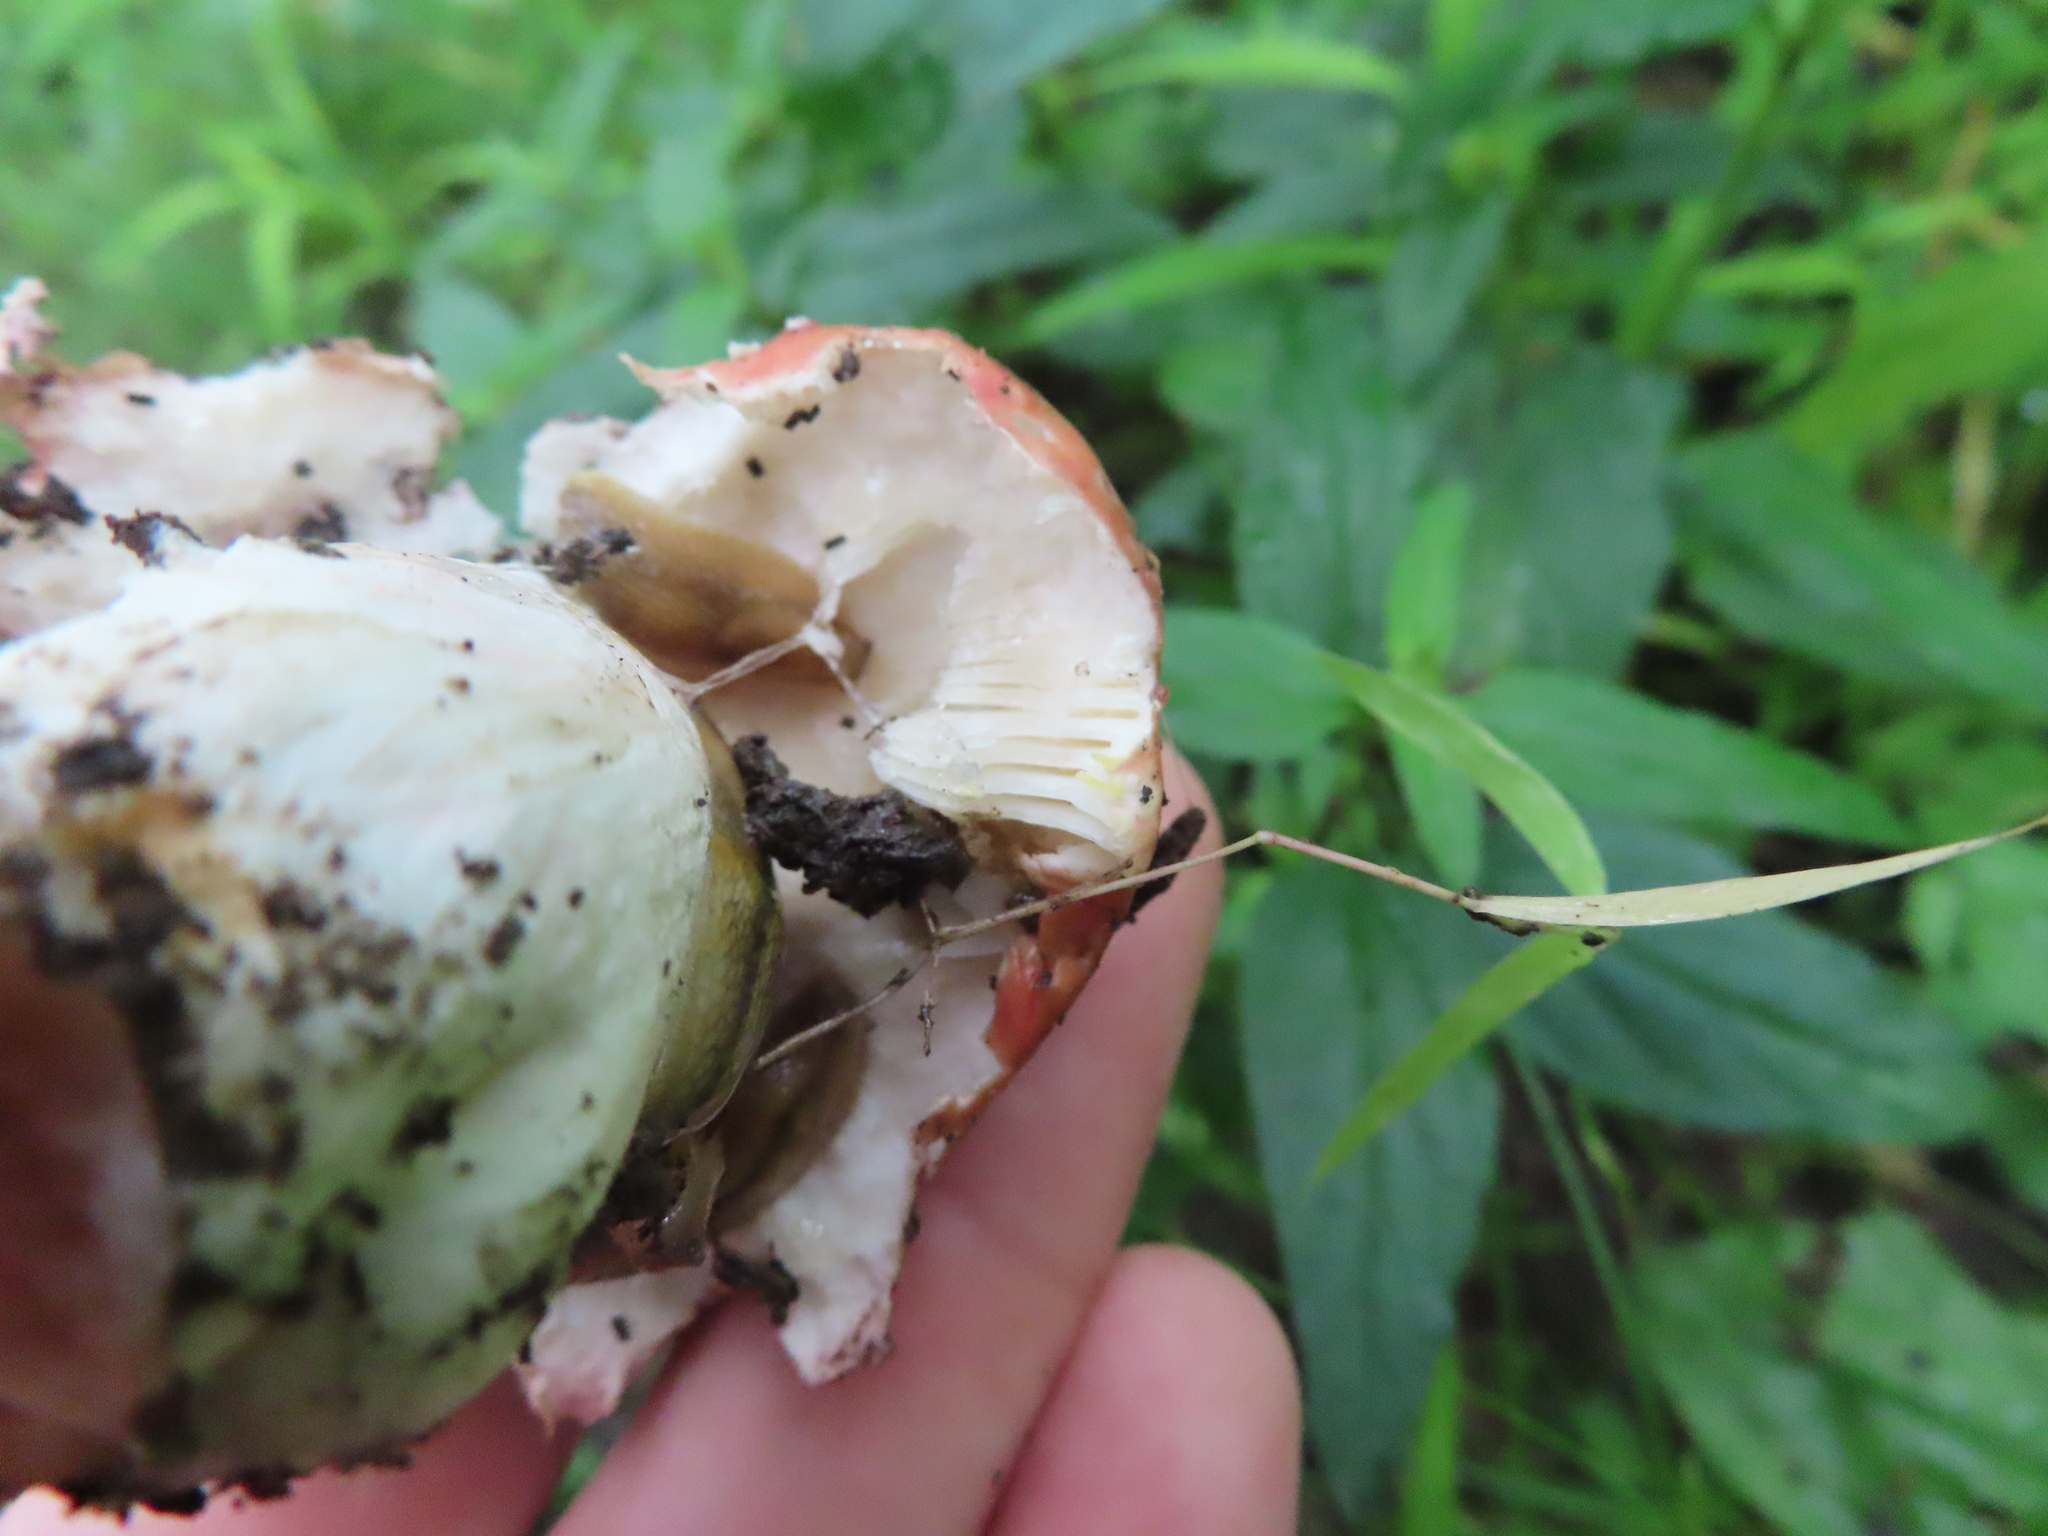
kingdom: Fungi
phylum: Basidiomycota
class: Agaricomycetes
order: Russulales
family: Russulaceae
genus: Russula
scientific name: Russula
